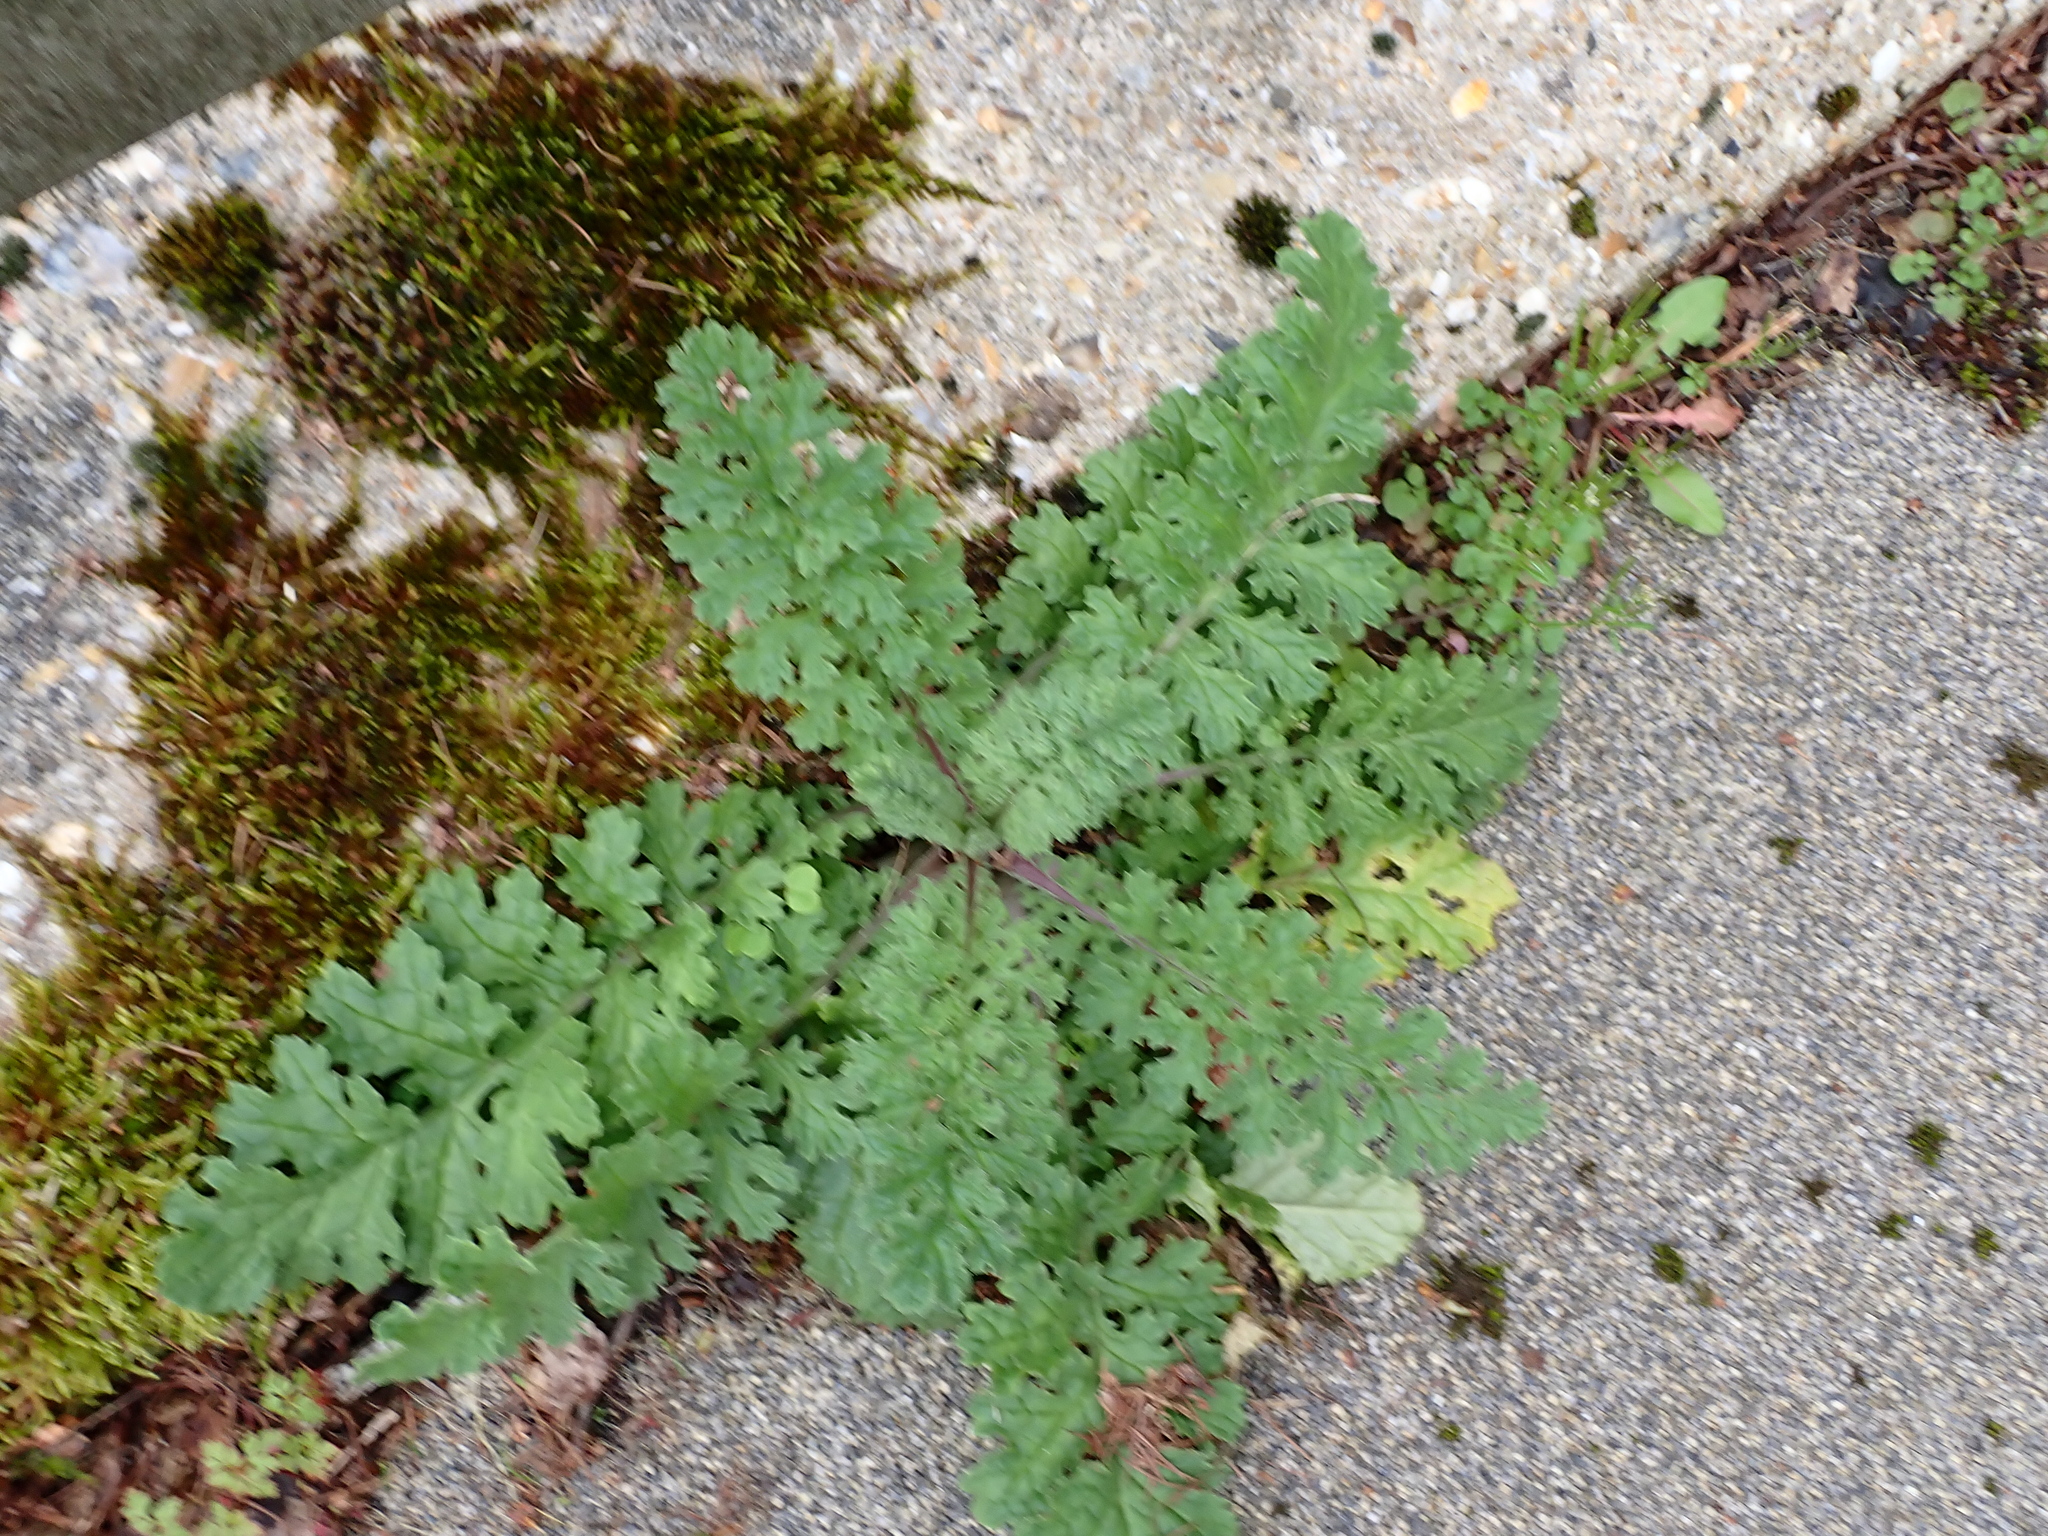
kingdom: Plantae
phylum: Tracheophyta
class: Magnoliopsida
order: Asterales
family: Asteraceae
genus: Jacobaea
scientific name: Jacobaea vulgaris
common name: Stinking willie
